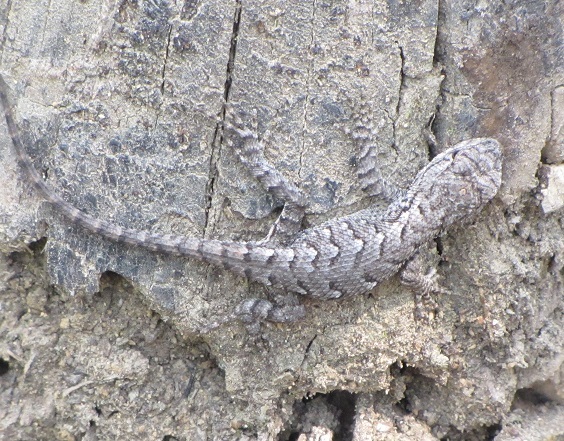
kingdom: Animalia
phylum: Chordata
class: Squamata
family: Phrynosomatidae
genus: Sceloporus
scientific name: Sceloporus undulatus
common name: Eastern fence lizard
